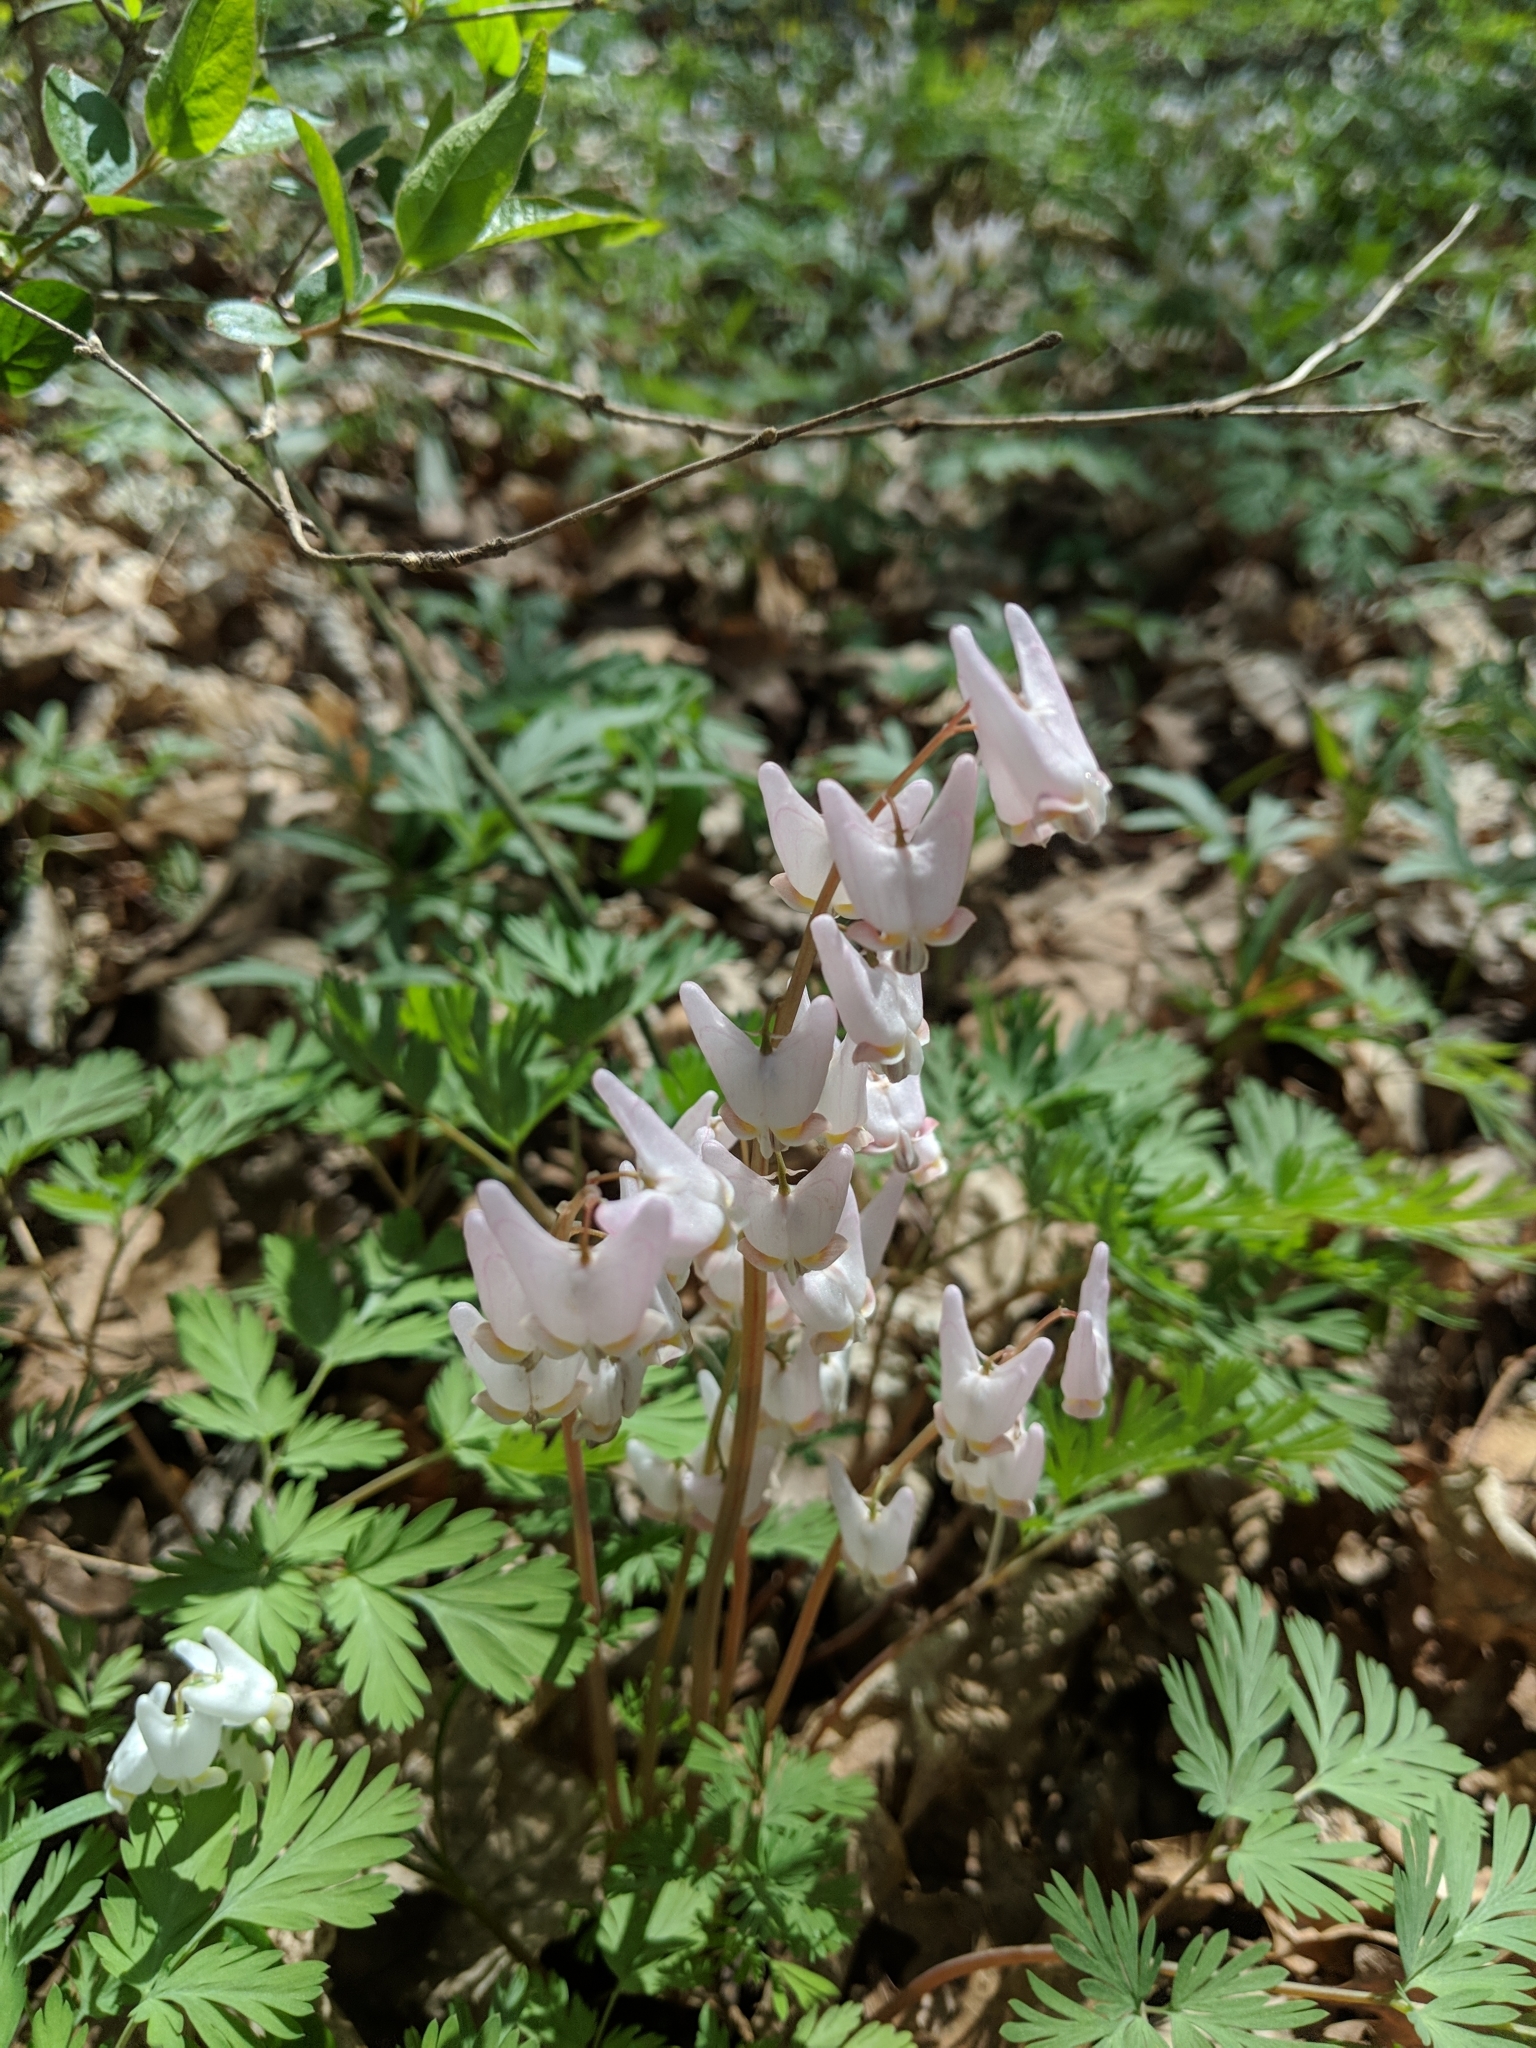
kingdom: Plantae
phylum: Tracheophyta
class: Magnoliopsida
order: Ranunculales
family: Papaveraceae
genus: Dicentra
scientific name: Dicentra cucullaria
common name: Dutchman's breeches
